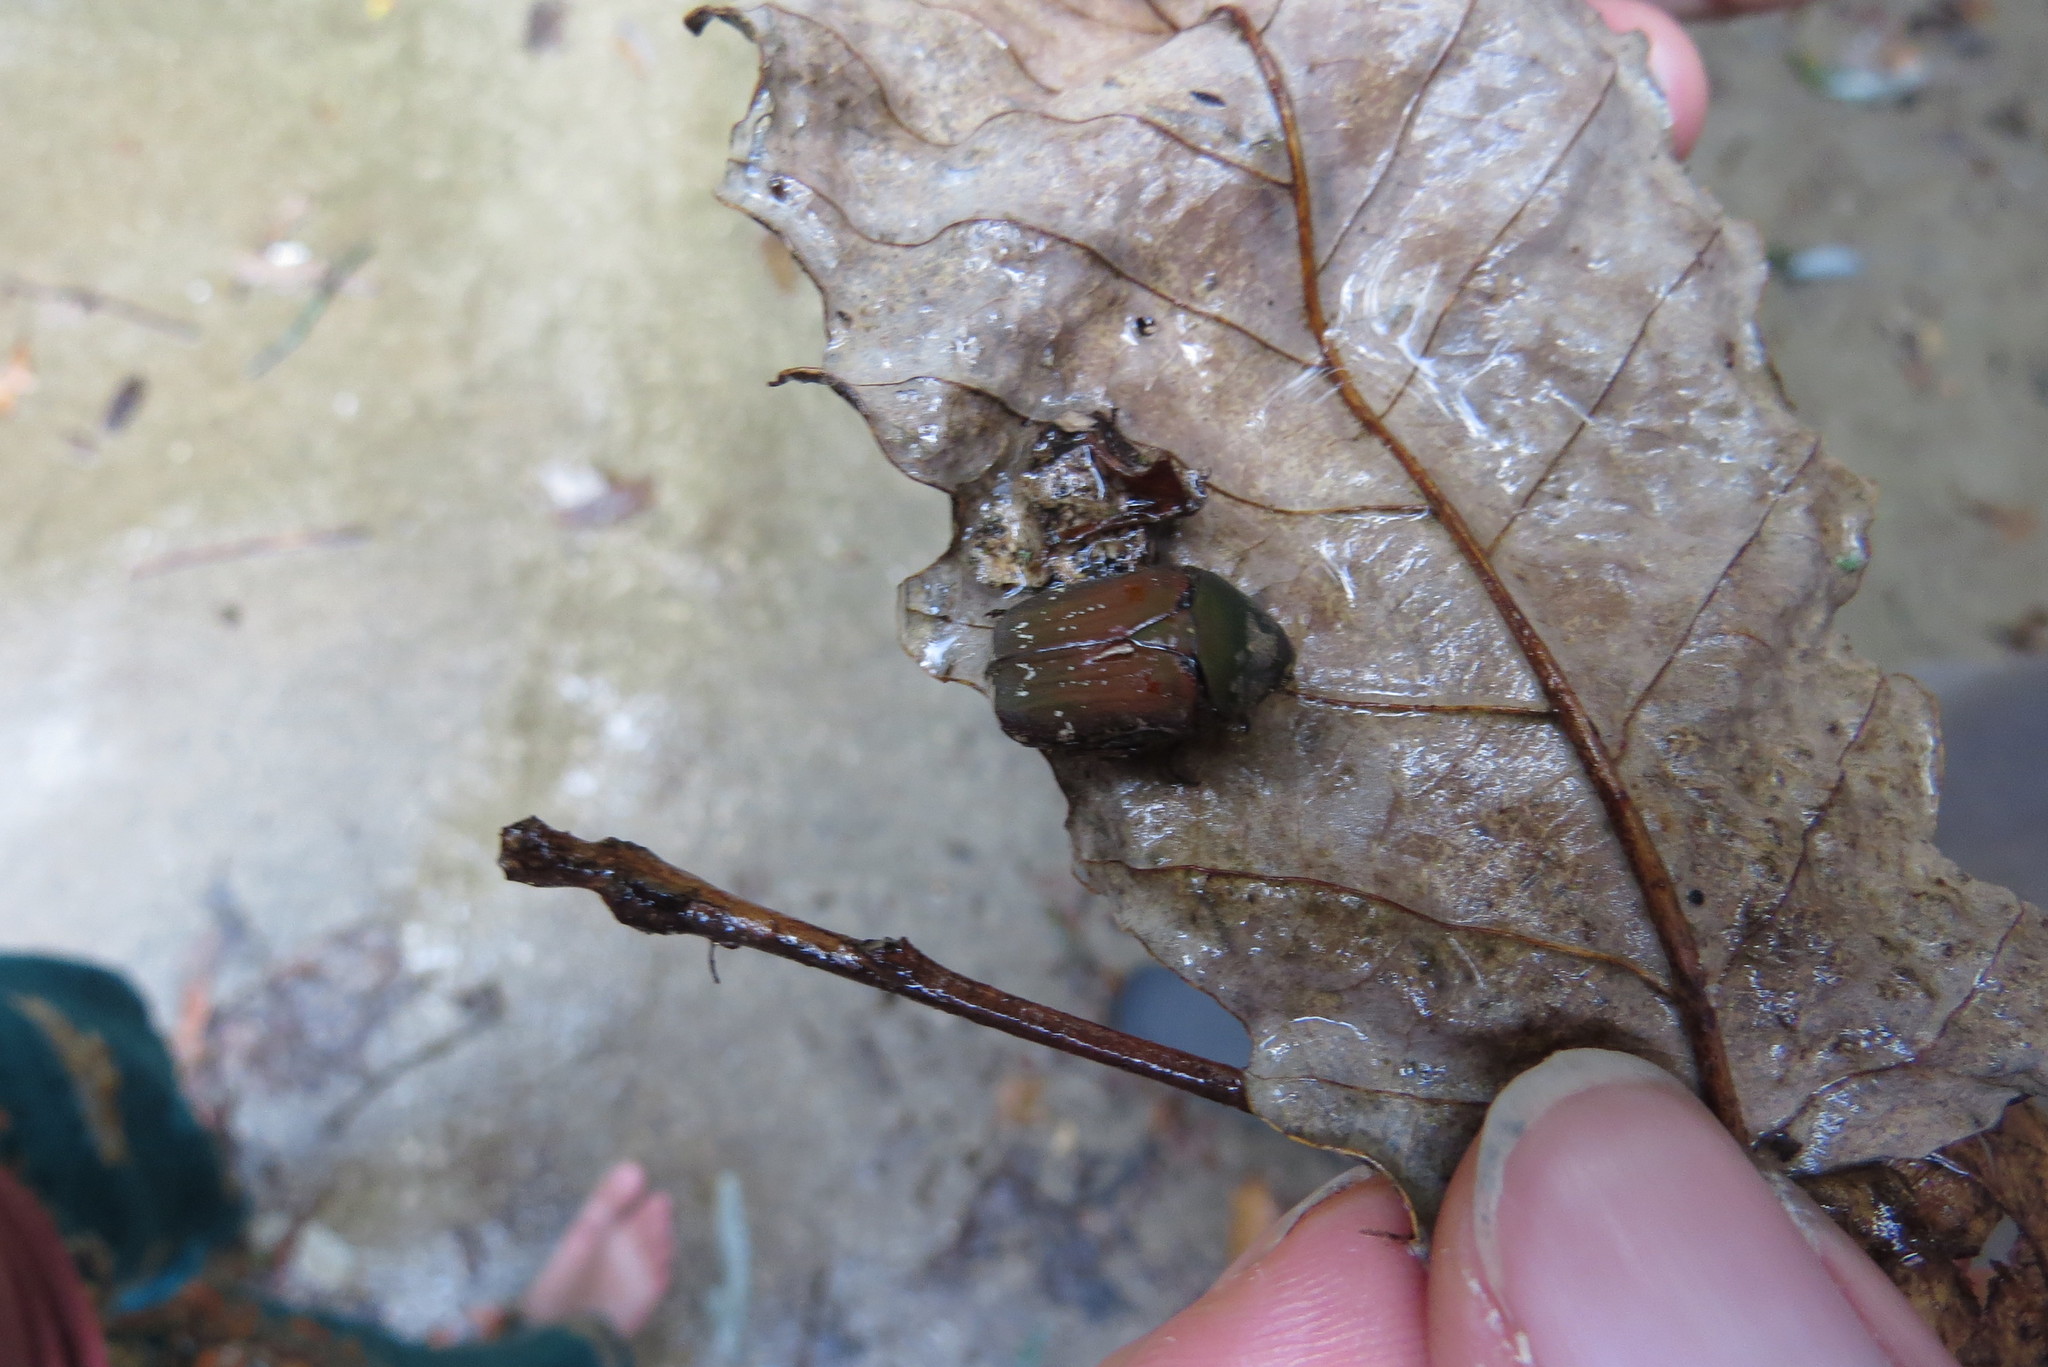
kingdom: Animalia
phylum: Arthropoda
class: Insecta
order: Coleoptera
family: Scarabaeidae
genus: Euphoria
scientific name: Euphoria herbacea
